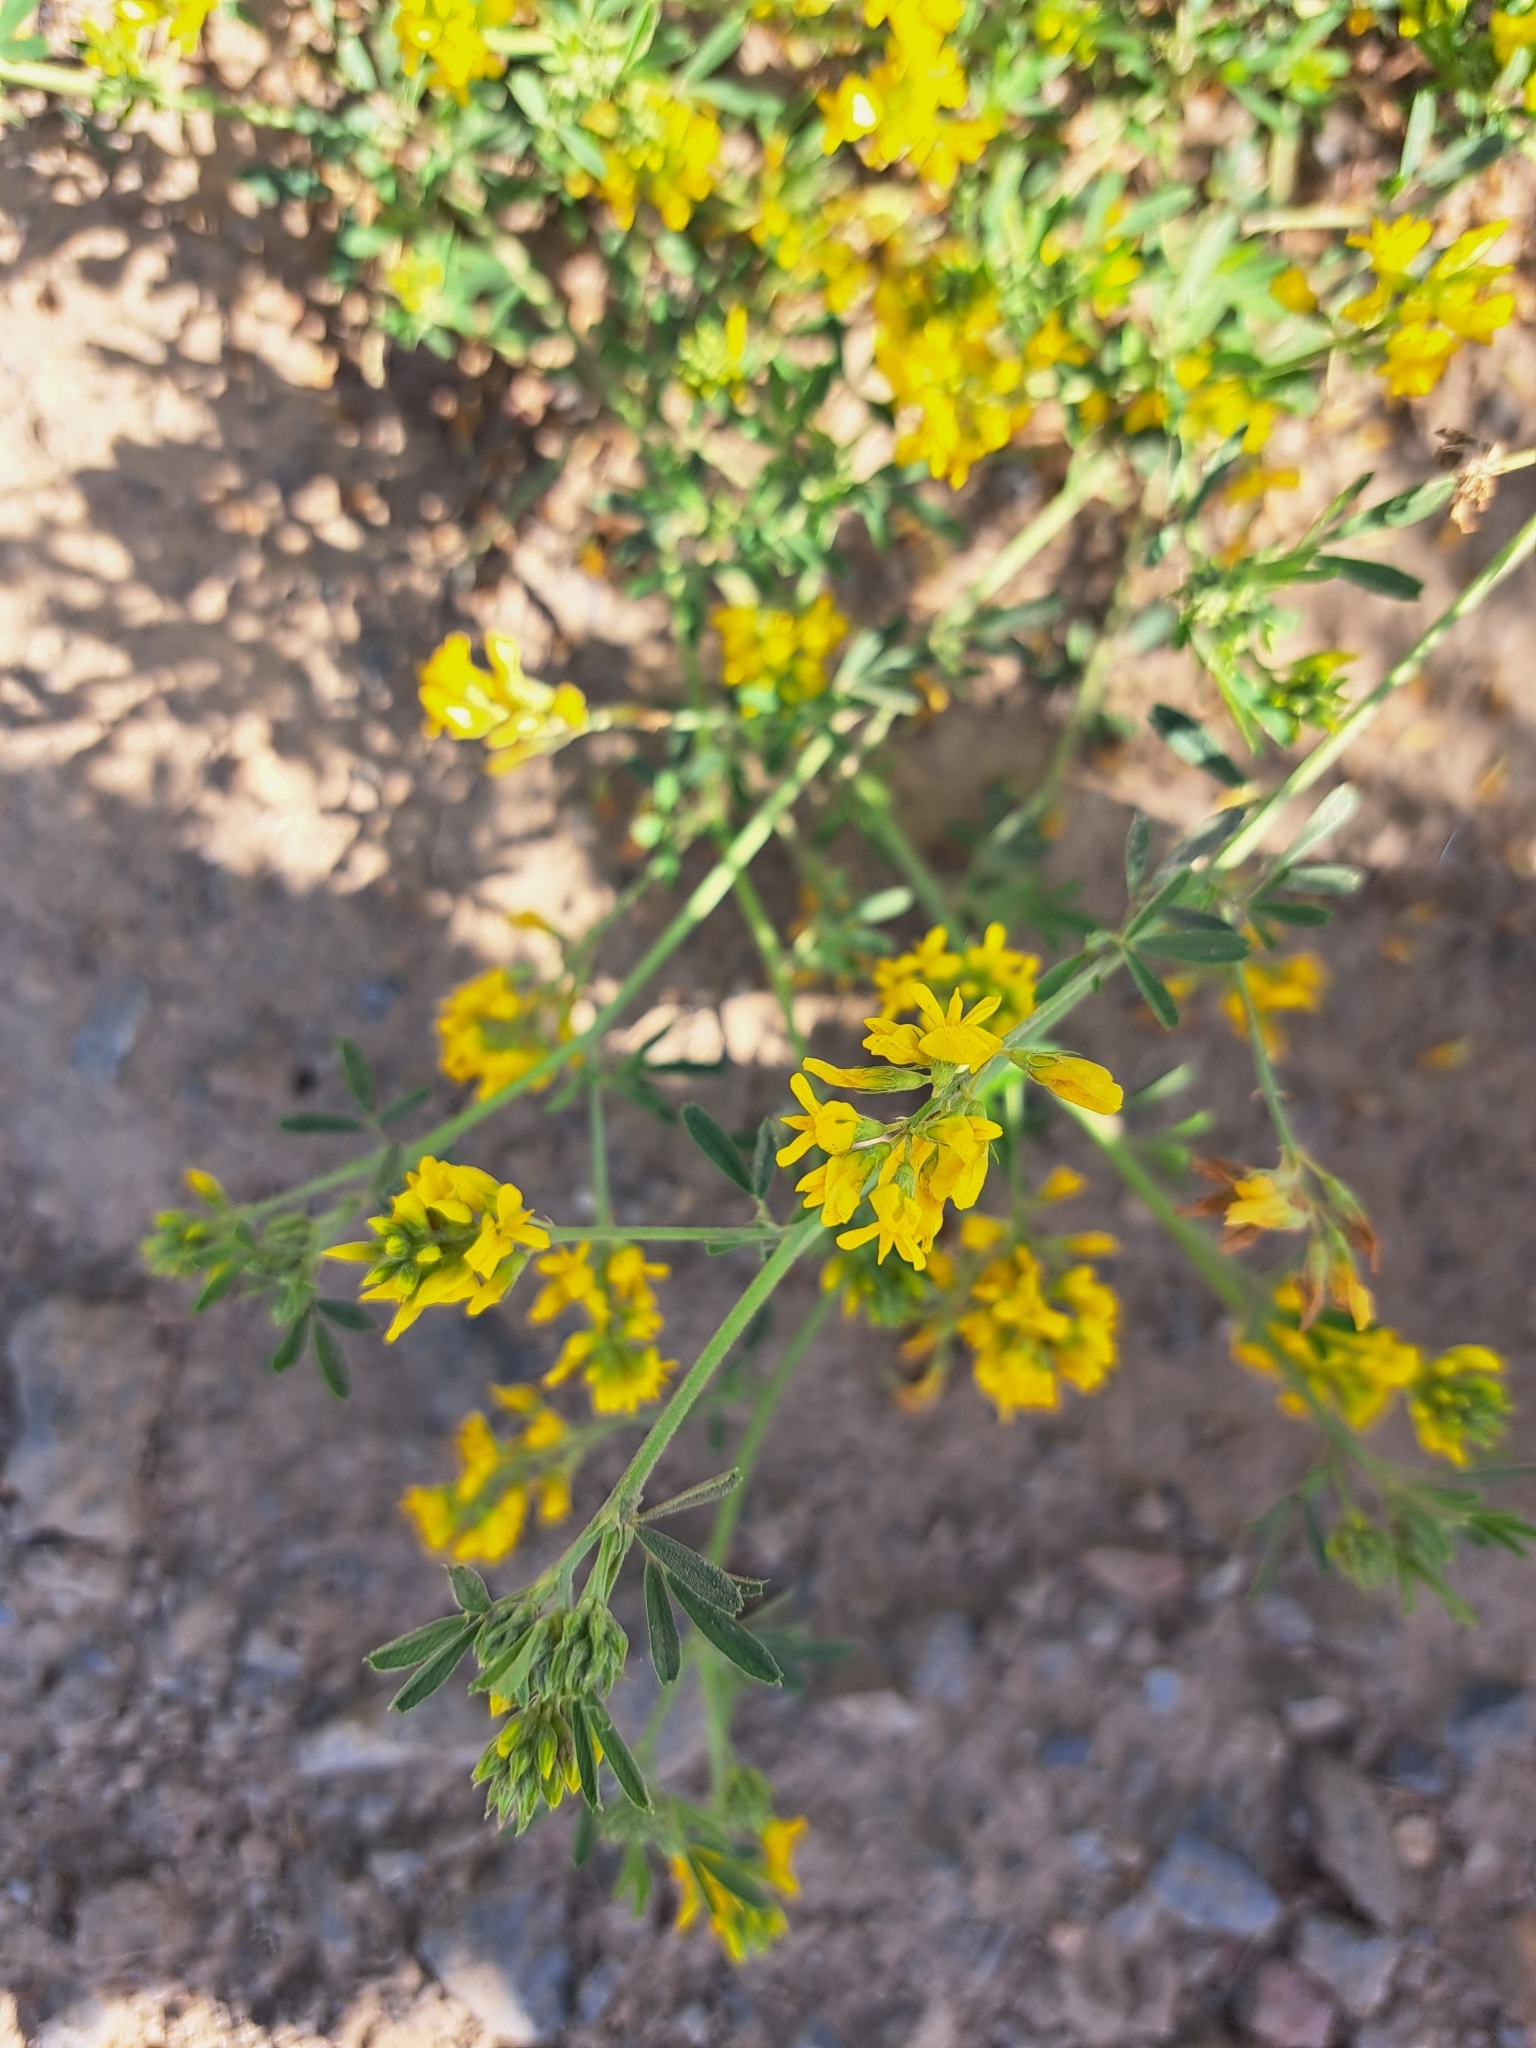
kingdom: Plantae
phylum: Tracheophyta
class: Magnoliopsida
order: Fabales
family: Fabaceae
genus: Medicago
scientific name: Medicago falcata
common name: Sickle medick
